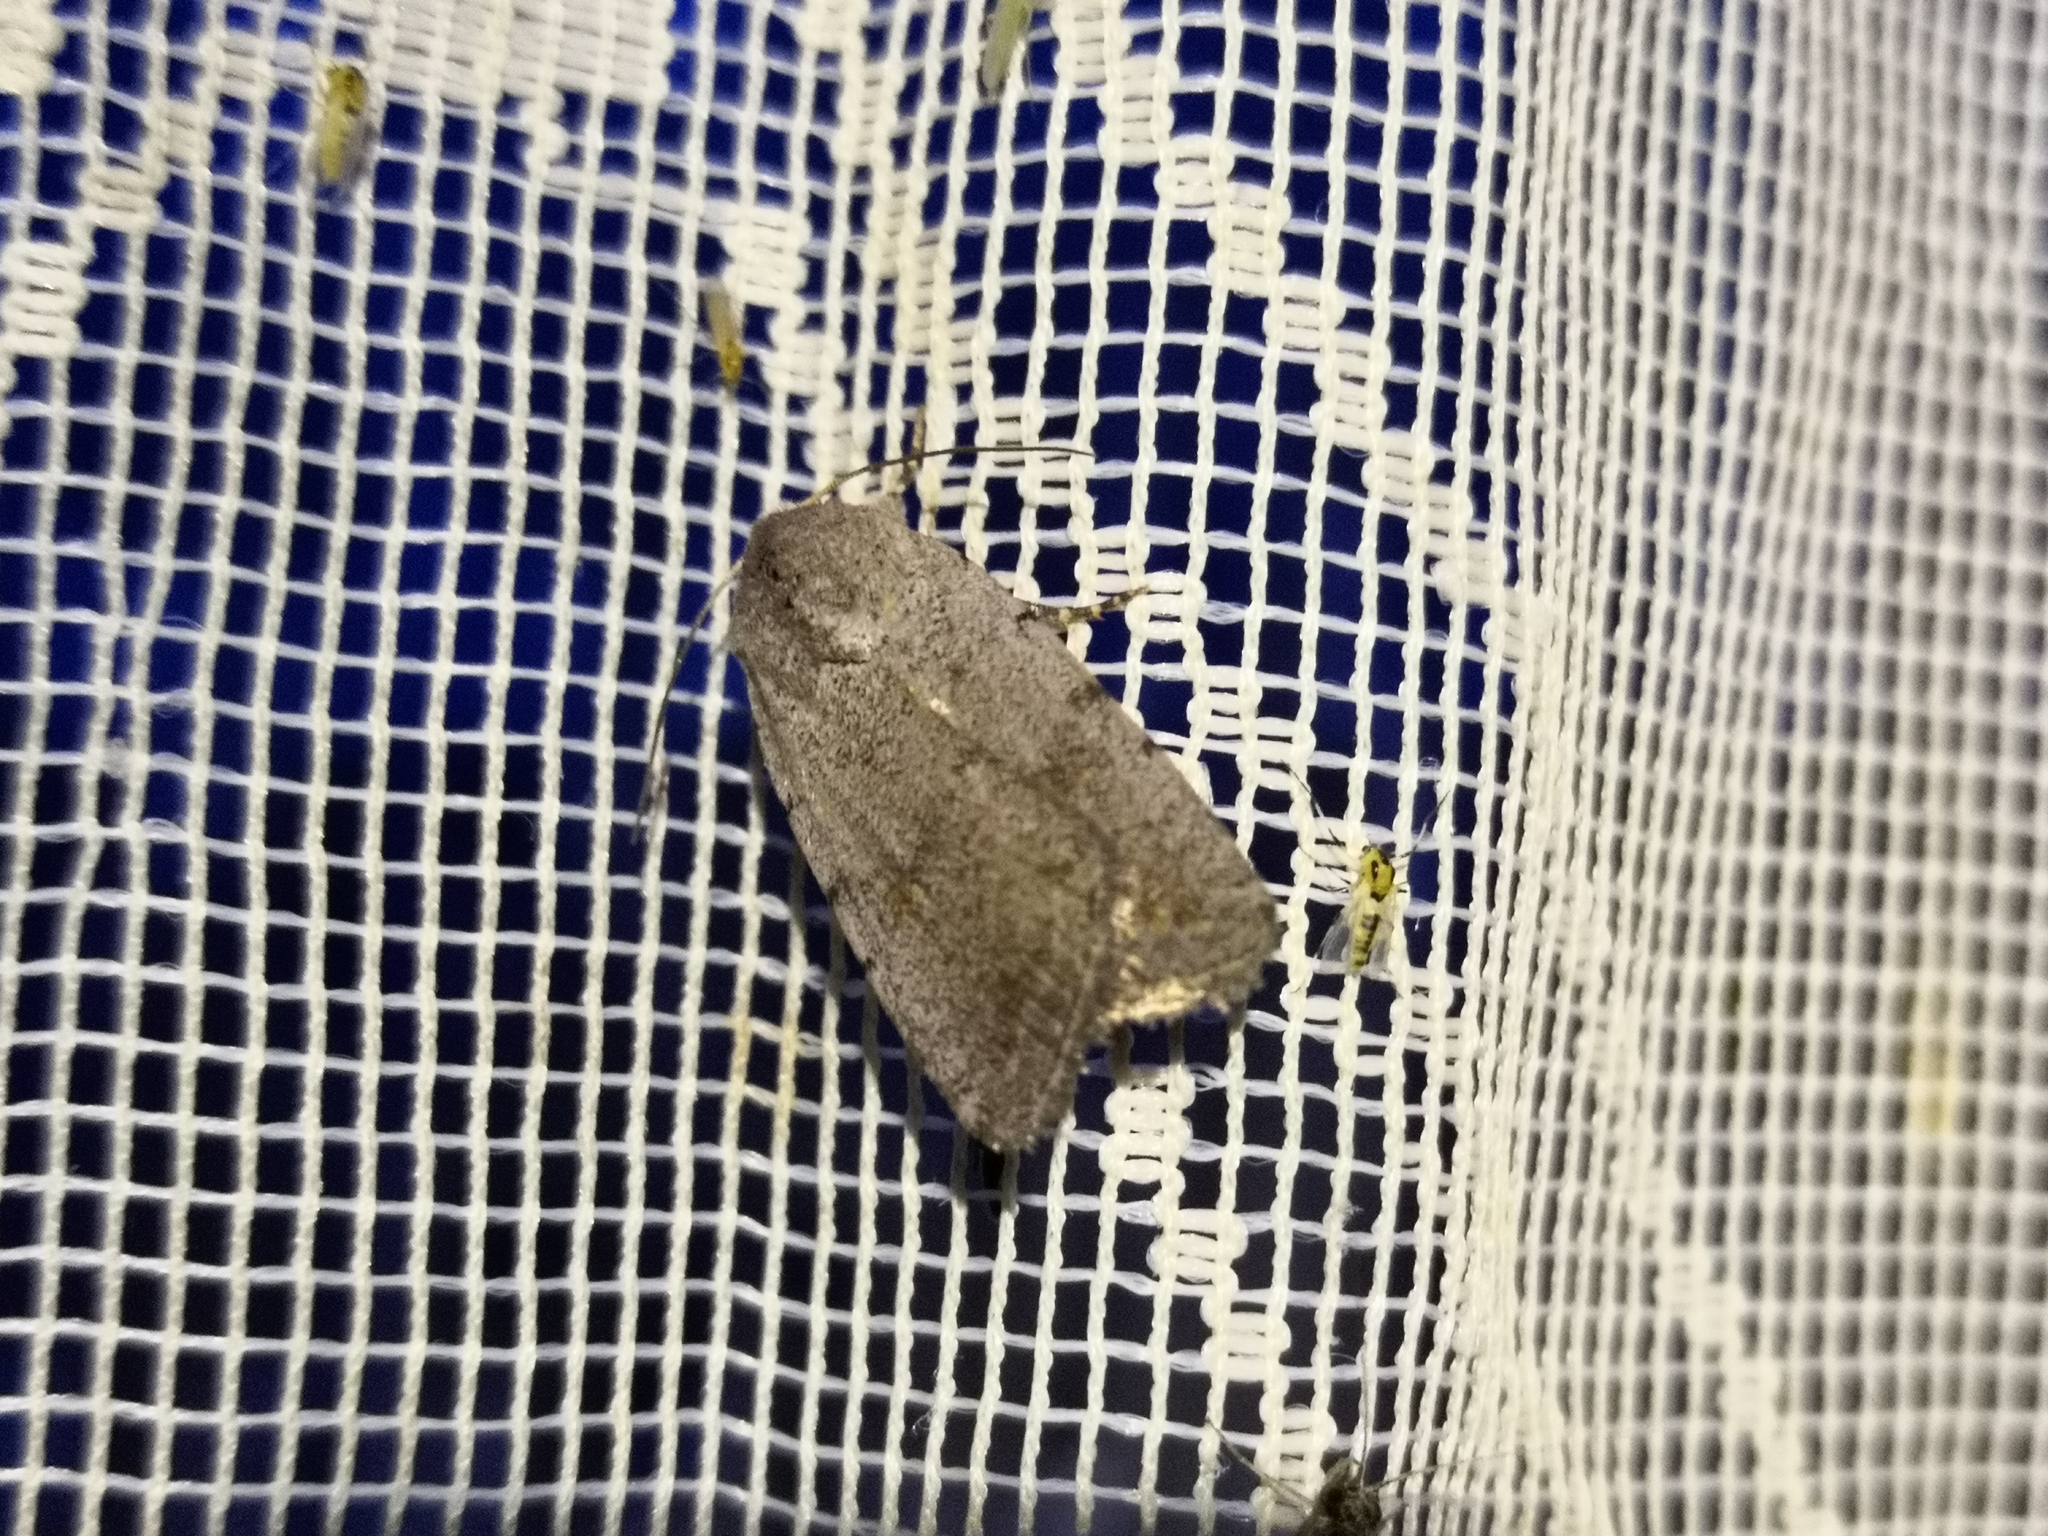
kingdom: Animalia
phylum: Arthropoda
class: Insecta
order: Lepidoptera
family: Noctuidae
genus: Caradrina
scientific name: Caradrina selini
